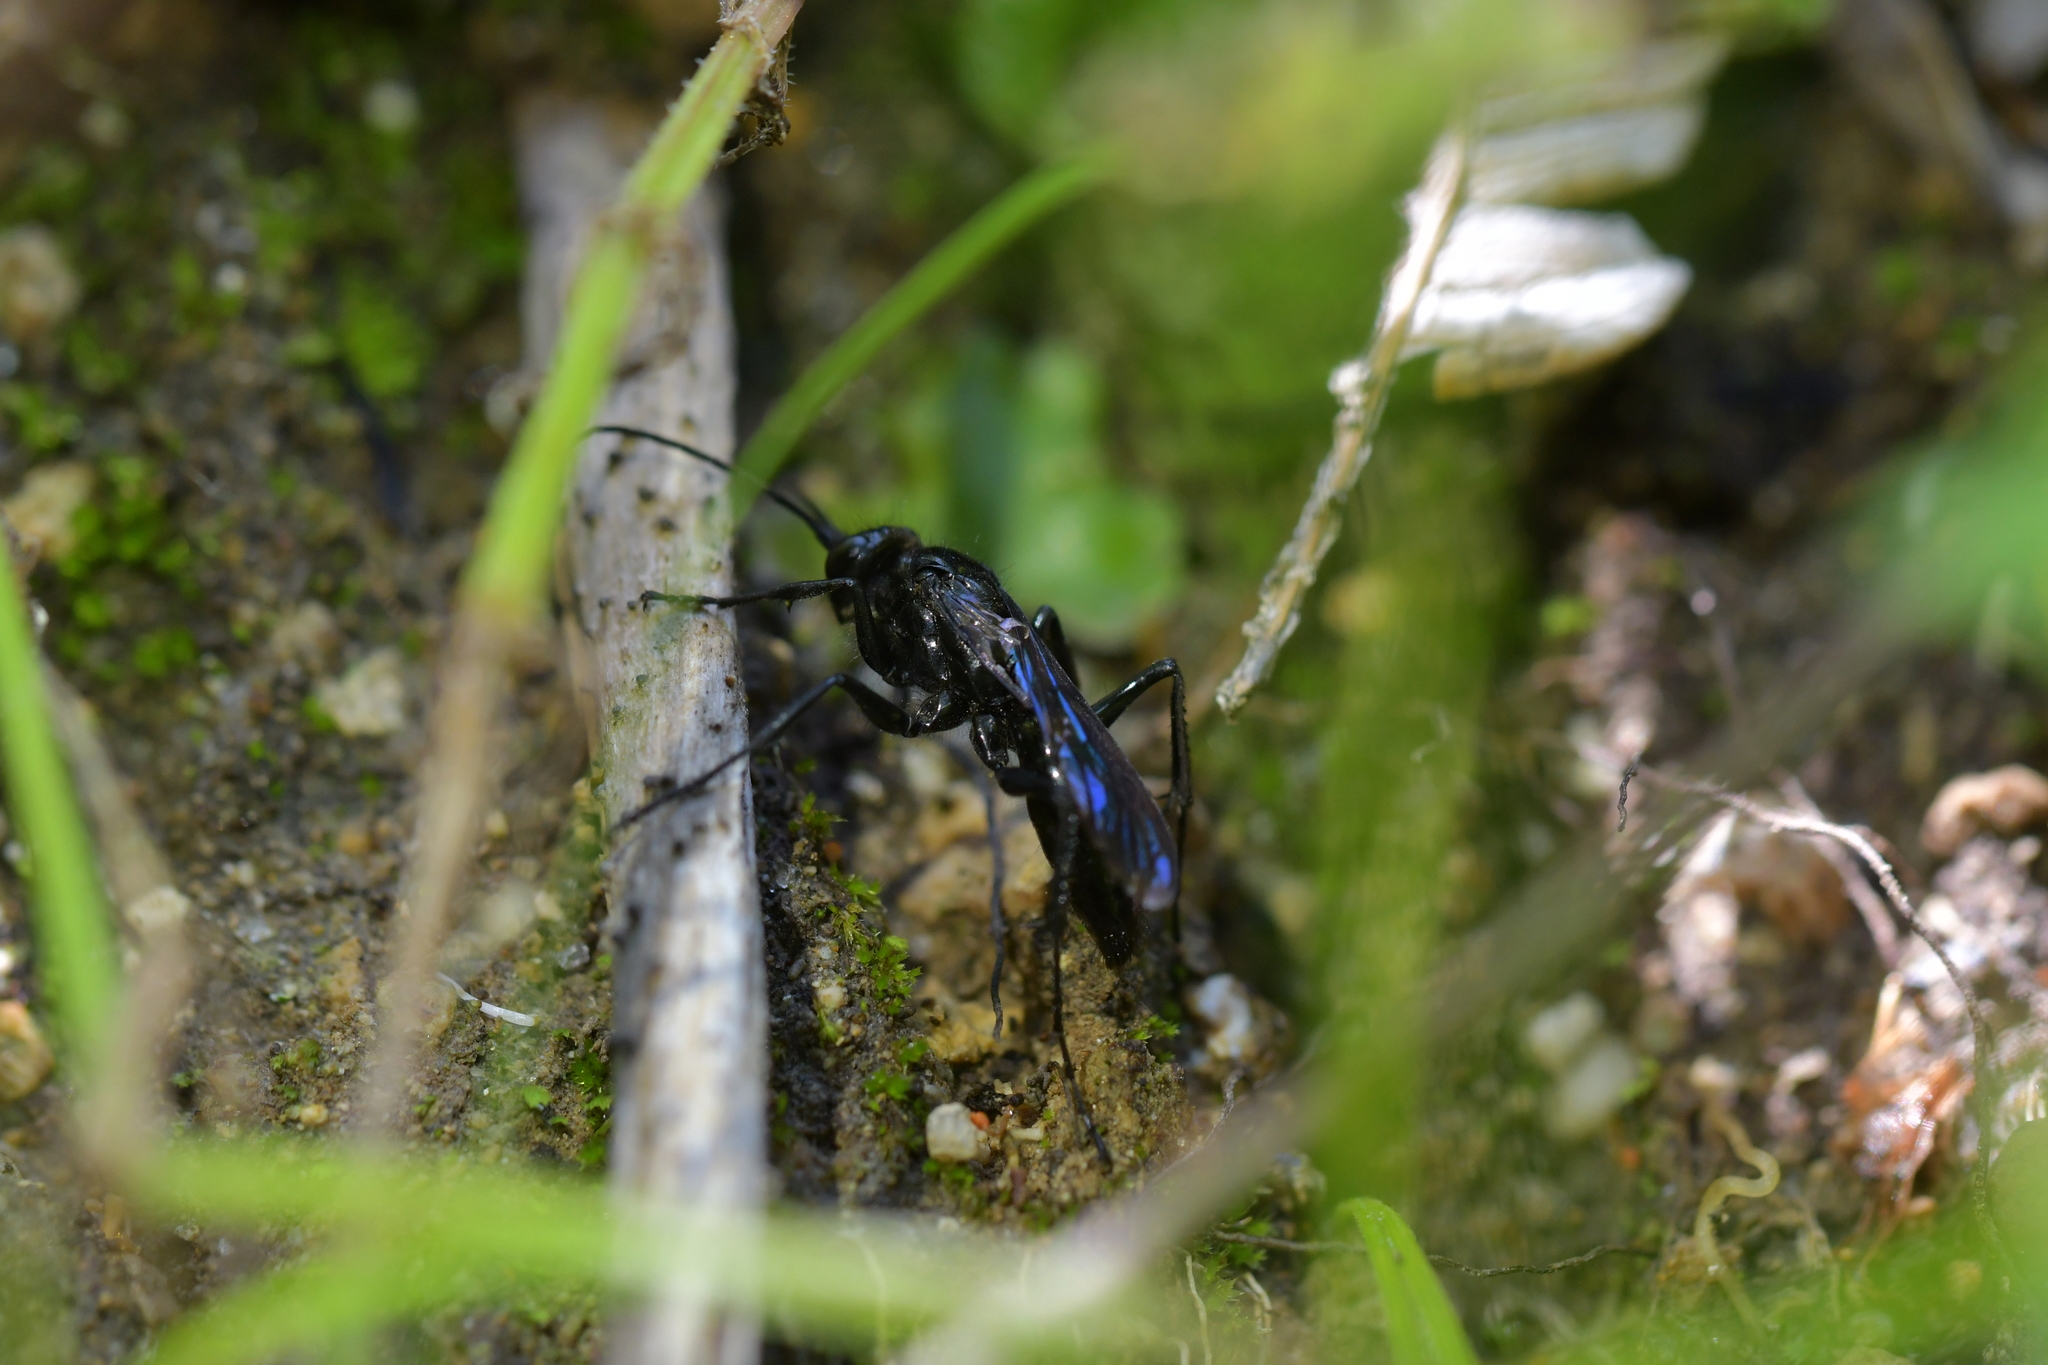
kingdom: Animalia
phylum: Arthropoda
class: Insecta
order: Hymenoptera
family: Pompilidae
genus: Priocnemis
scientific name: Priocnemis monachus
